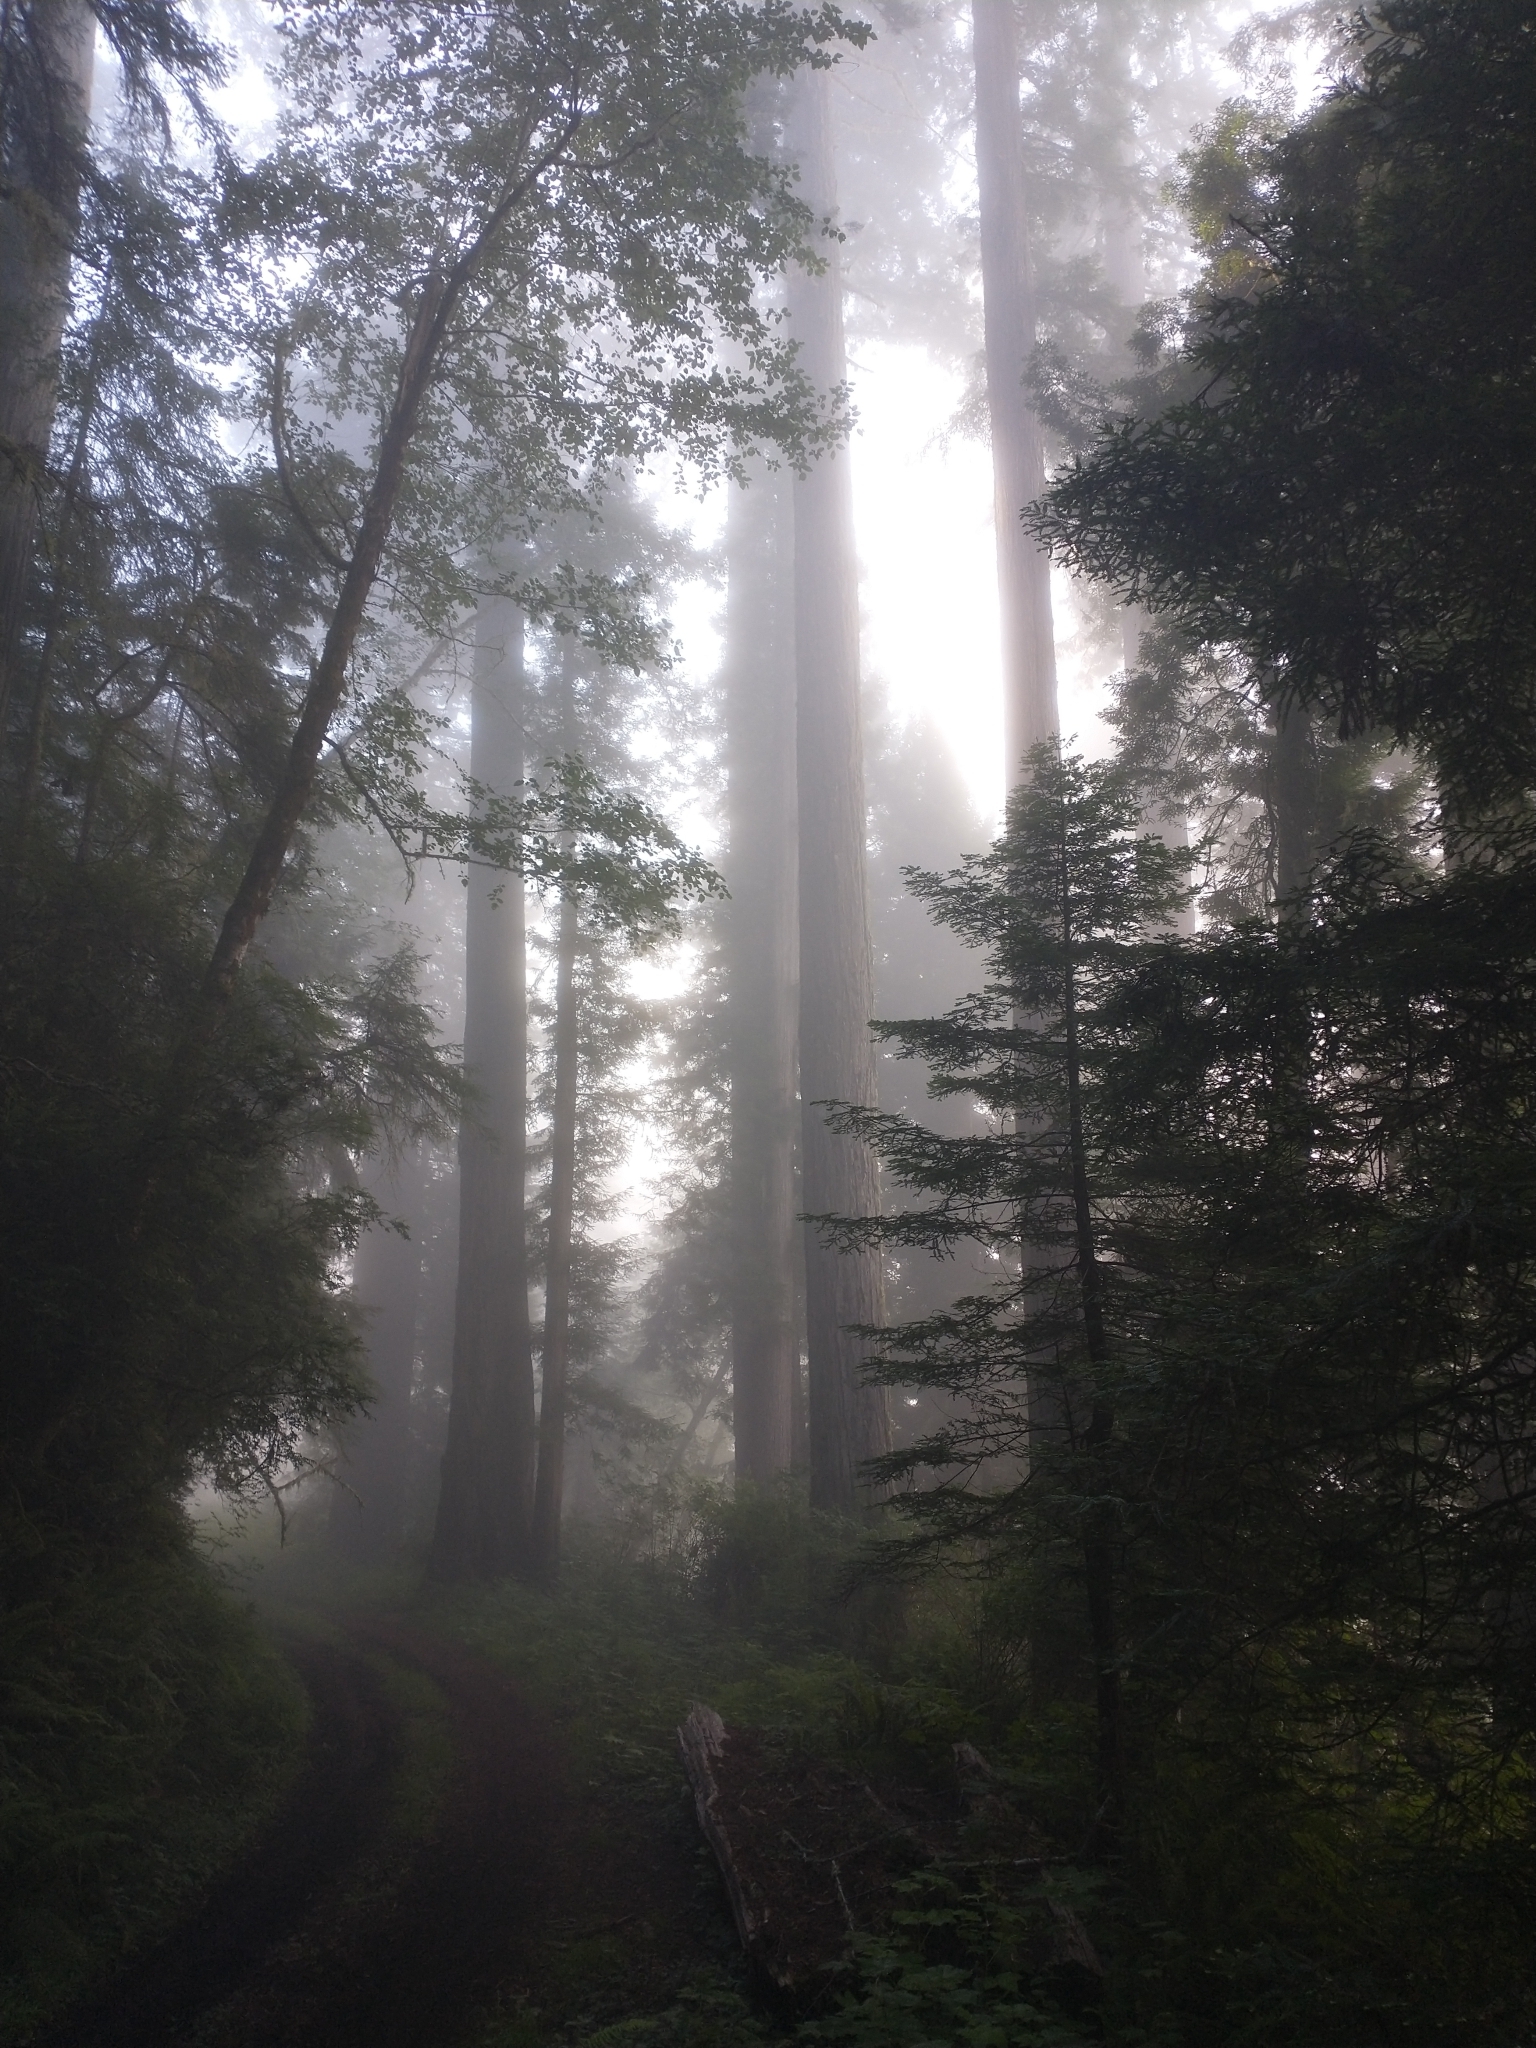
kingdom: Plantae
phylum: Tracheophyta
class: Pinopsida
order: Pinales
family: Cupressaceae
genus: Sequoia
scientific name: Sequoia sempervirens
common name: Coast redwood
